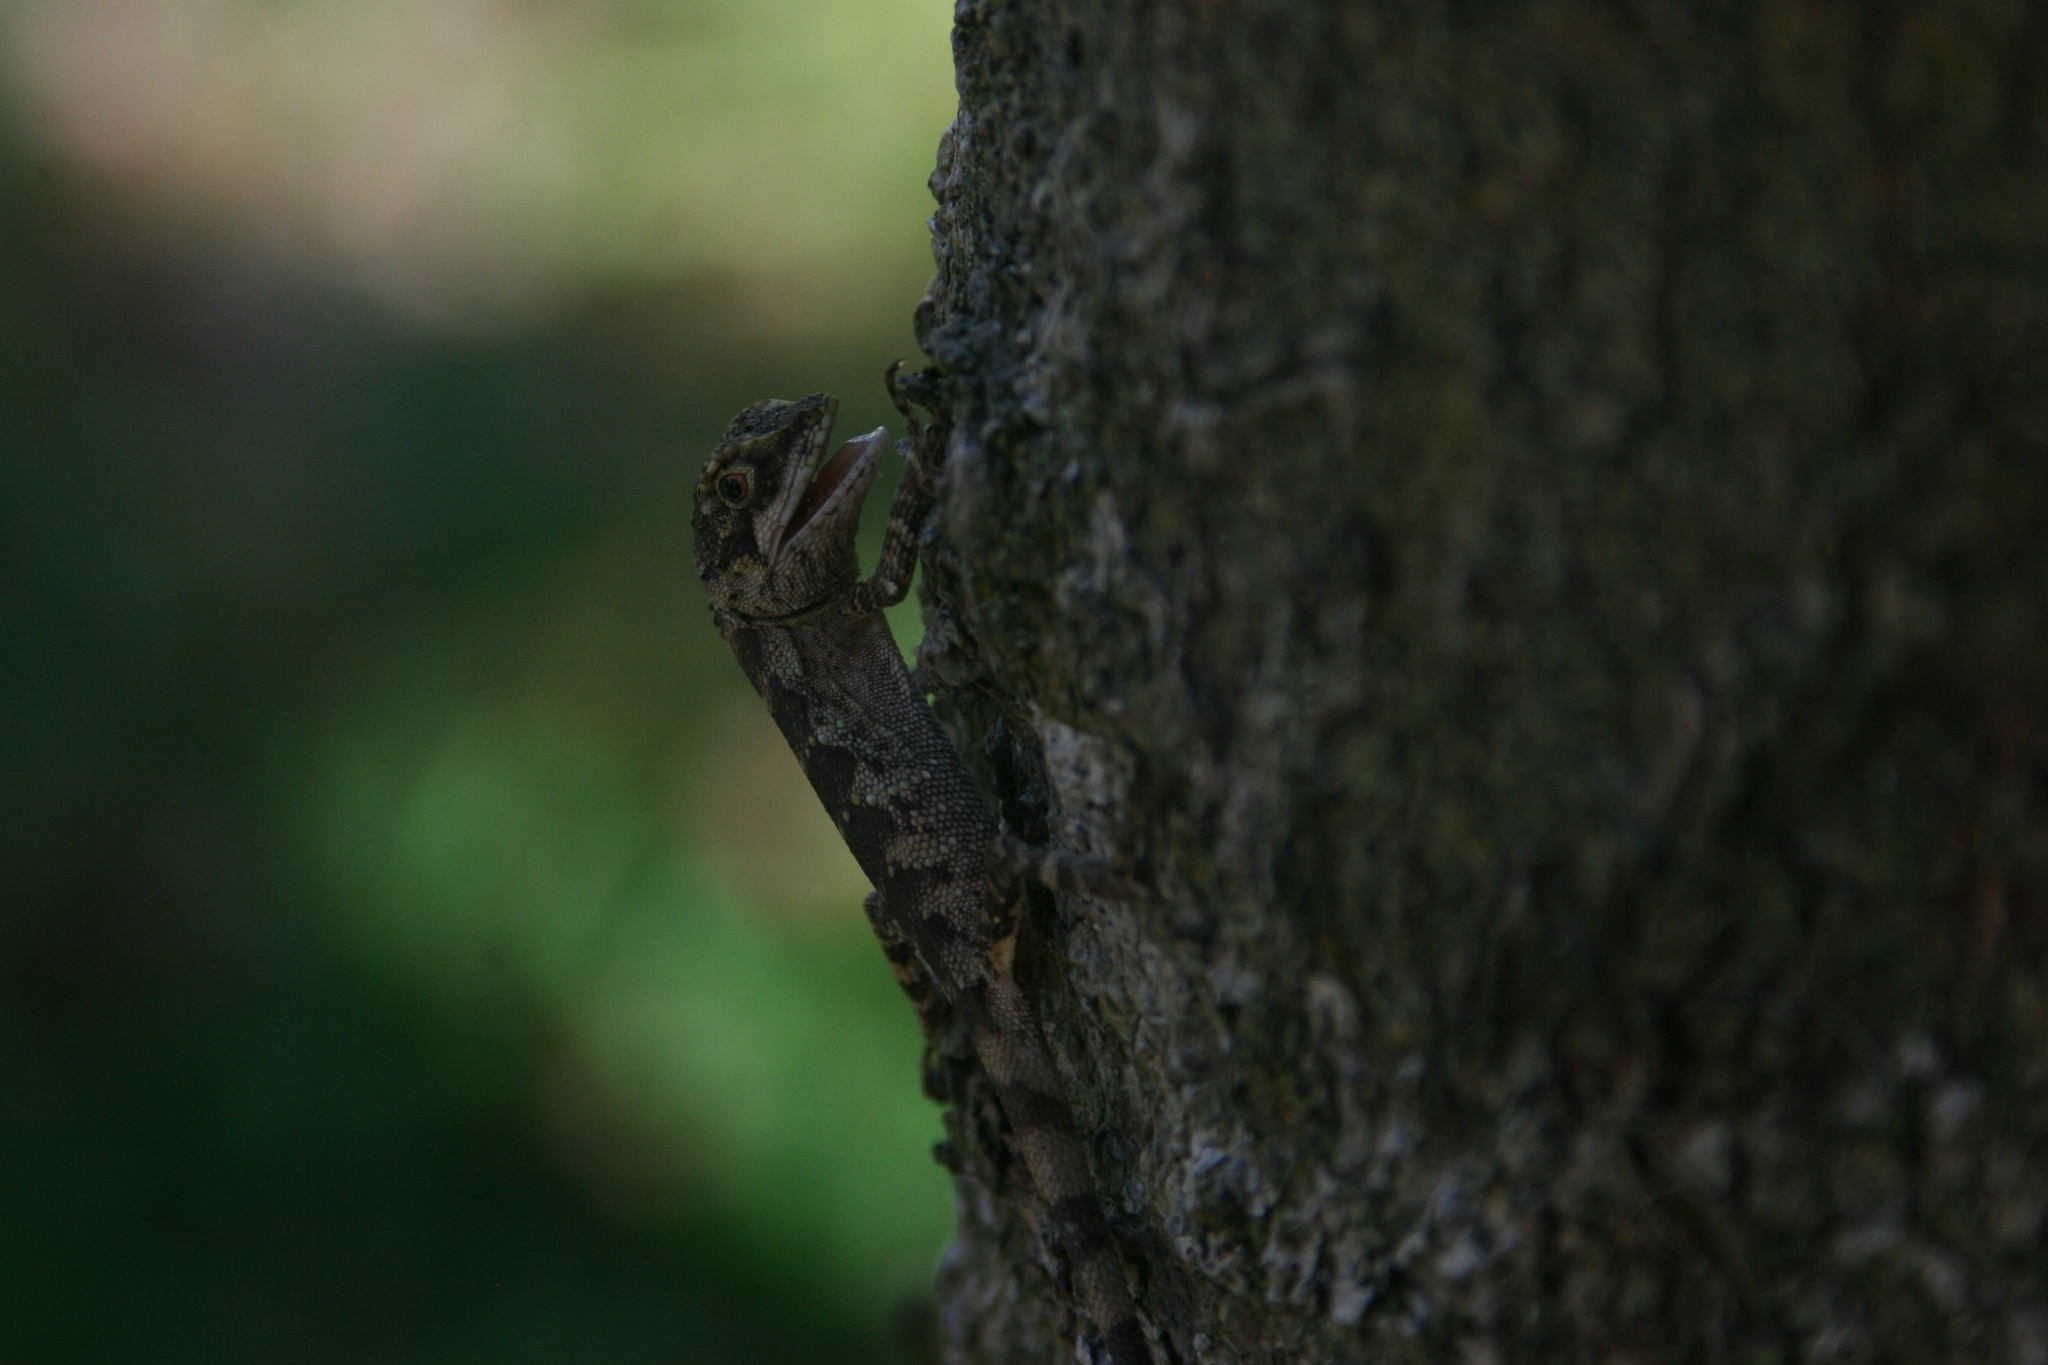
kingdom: Fungi
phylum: Basidiomycota
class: Agaricomycetes
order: Boletales
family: Diplocystidiaceae
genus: Diploderma
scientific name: Diploderma polygonatum
